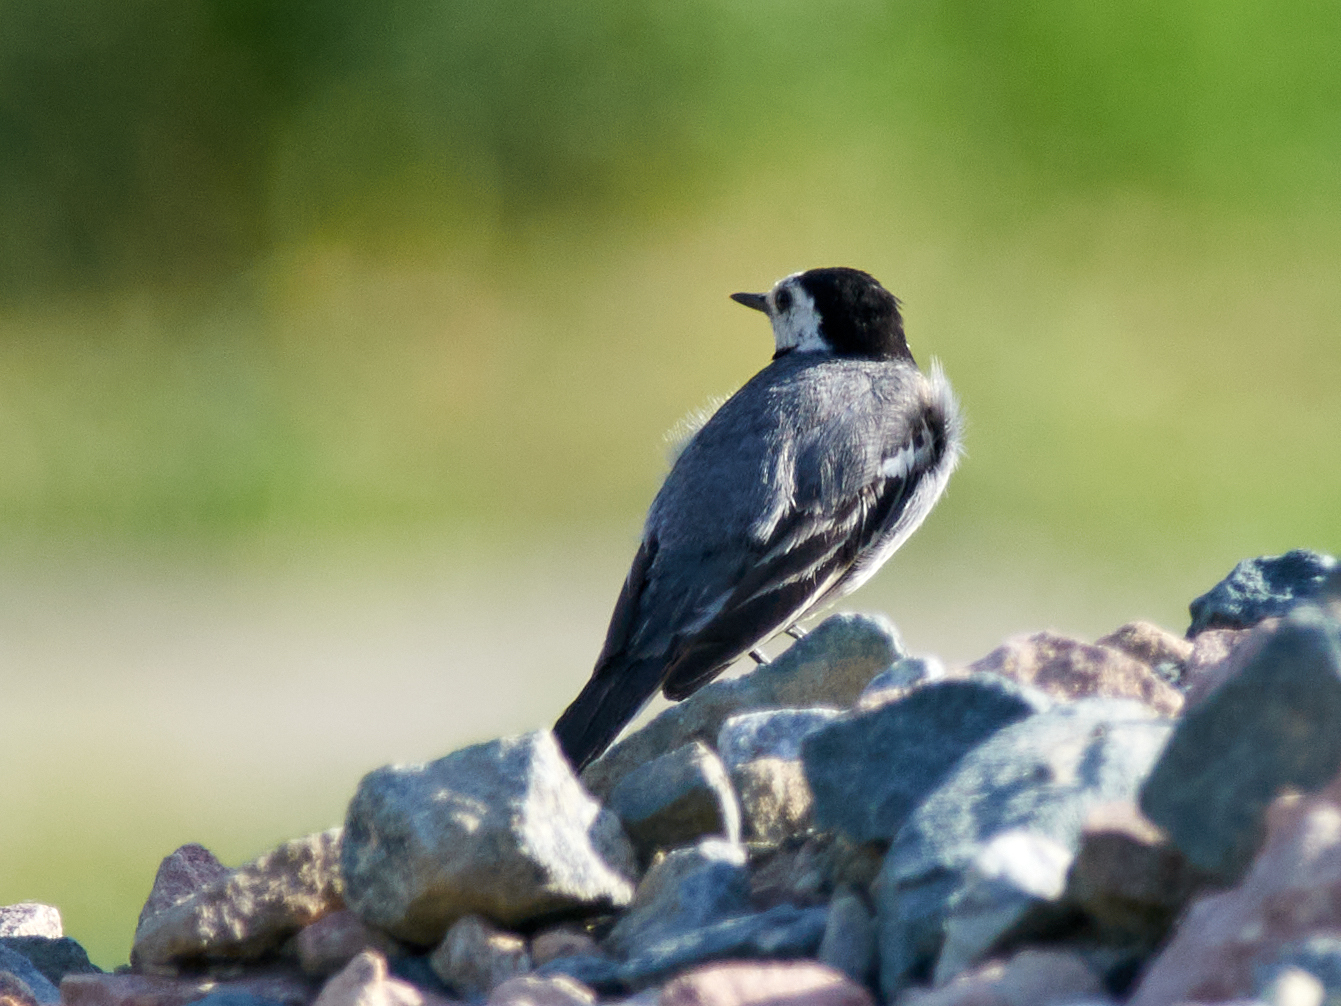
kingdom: Animalia
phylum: Chordata
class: Aves
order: Passeriformes
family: Motacillidae
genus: Motacilla
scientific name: Motacilla alba
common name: White wagtail
